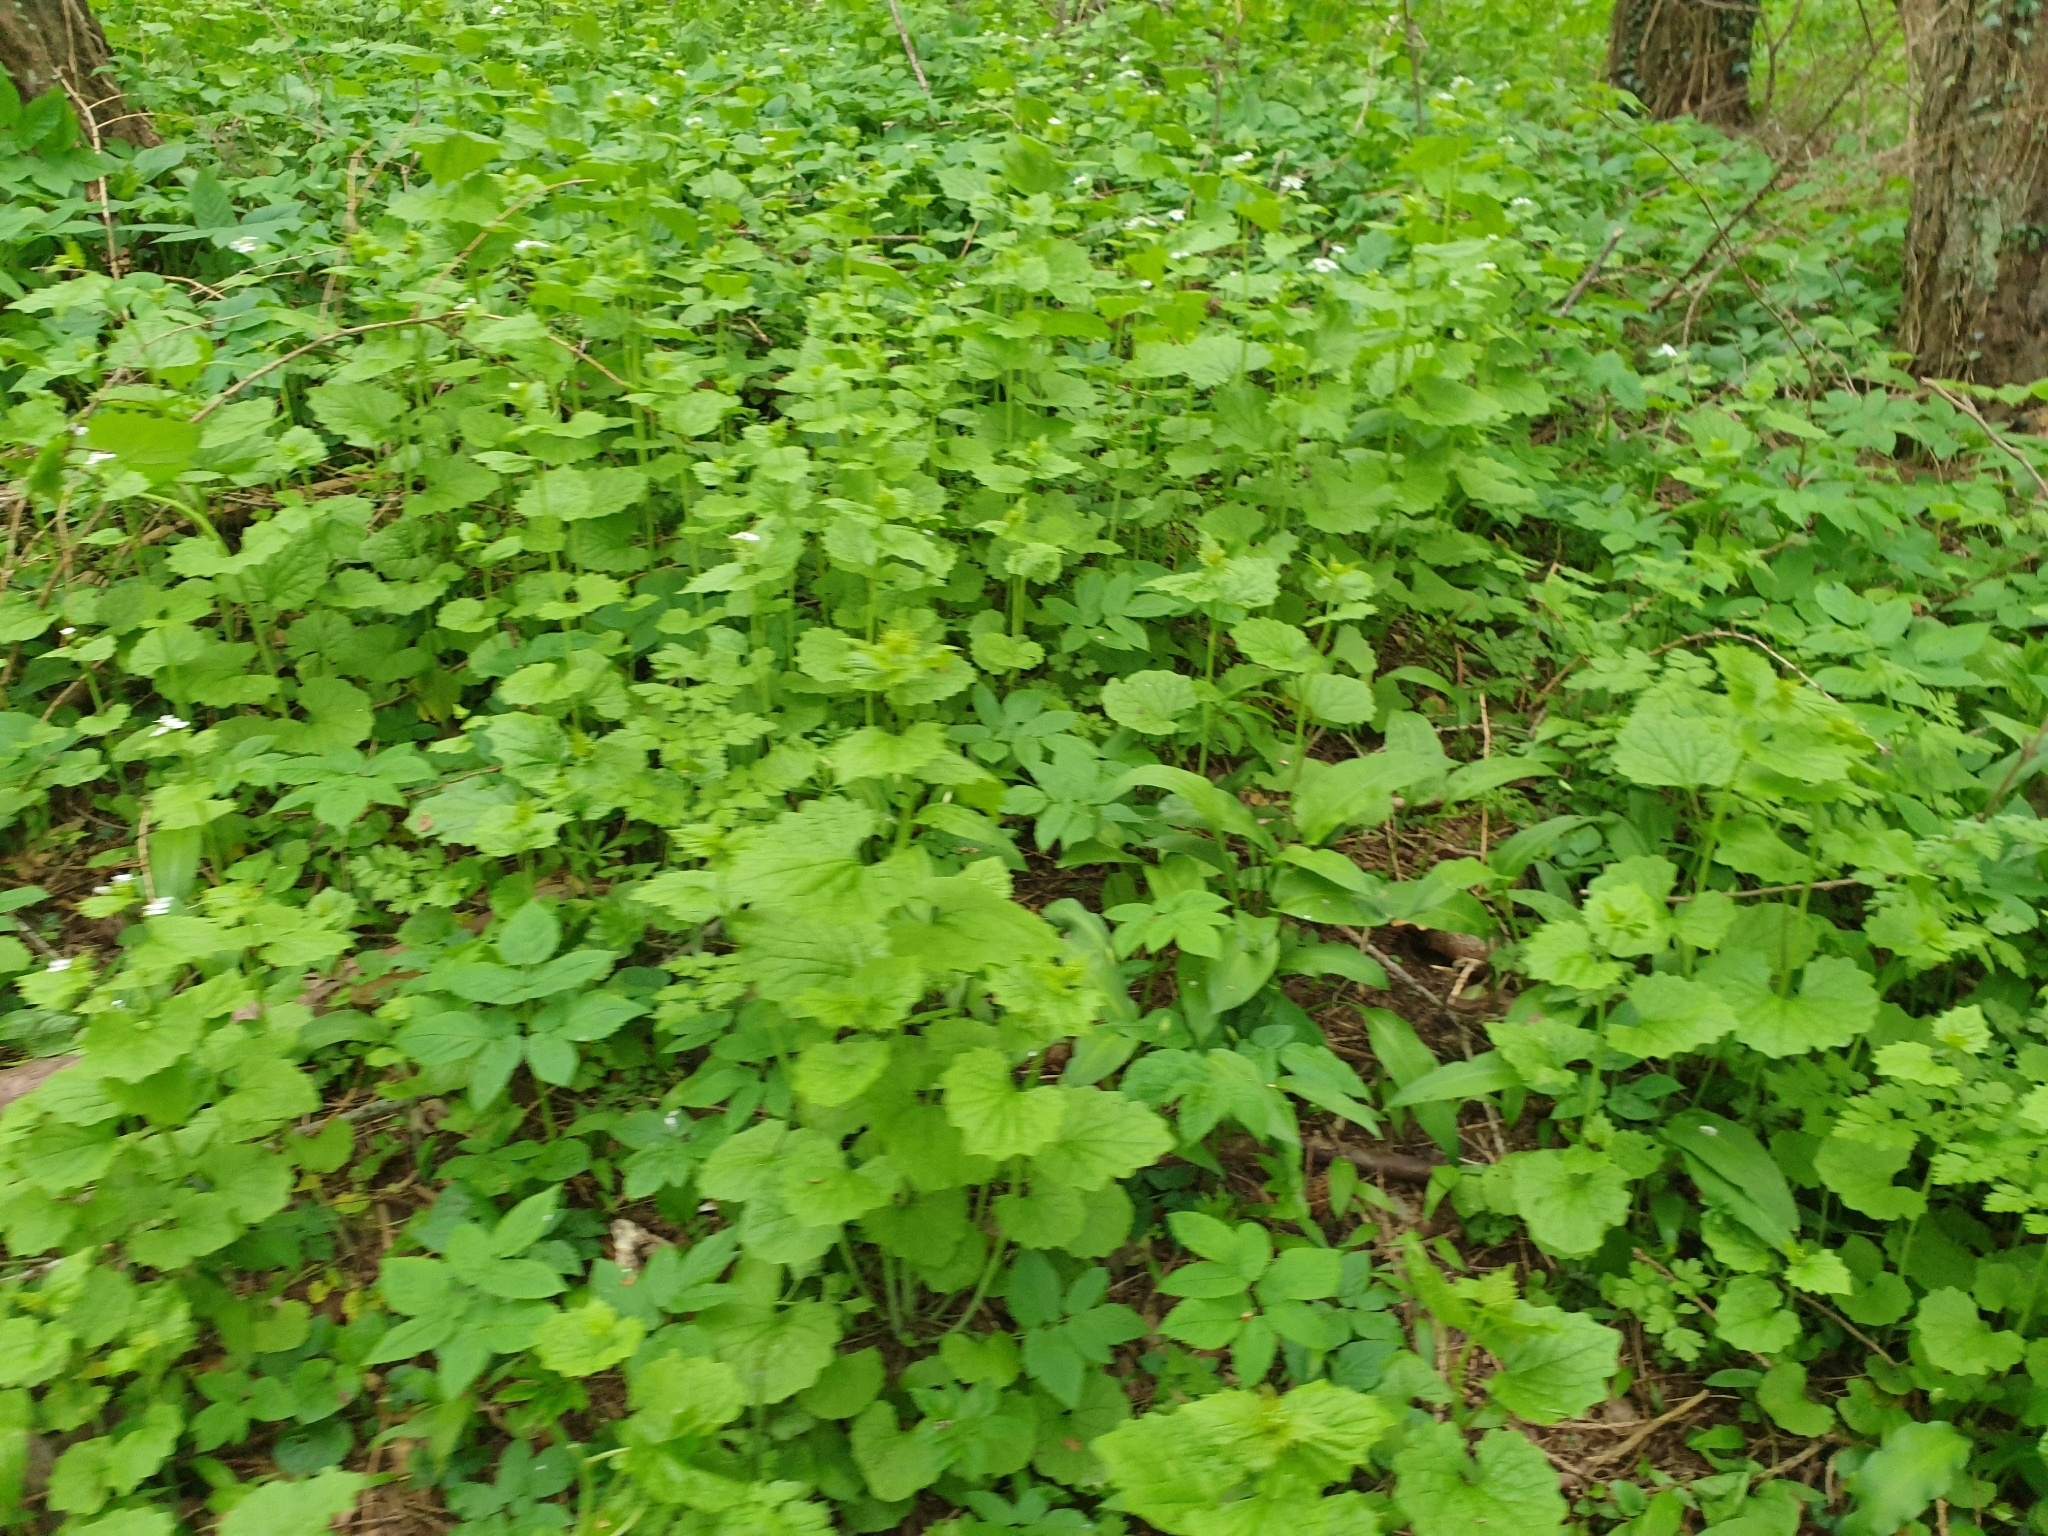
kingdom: Plantae
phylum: Tracheophyta
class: Magnoliopsida
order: Brassicales
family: Brassicaceae
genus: Alliaria
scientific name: Alliaria petiolata
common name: Garlic mustard
